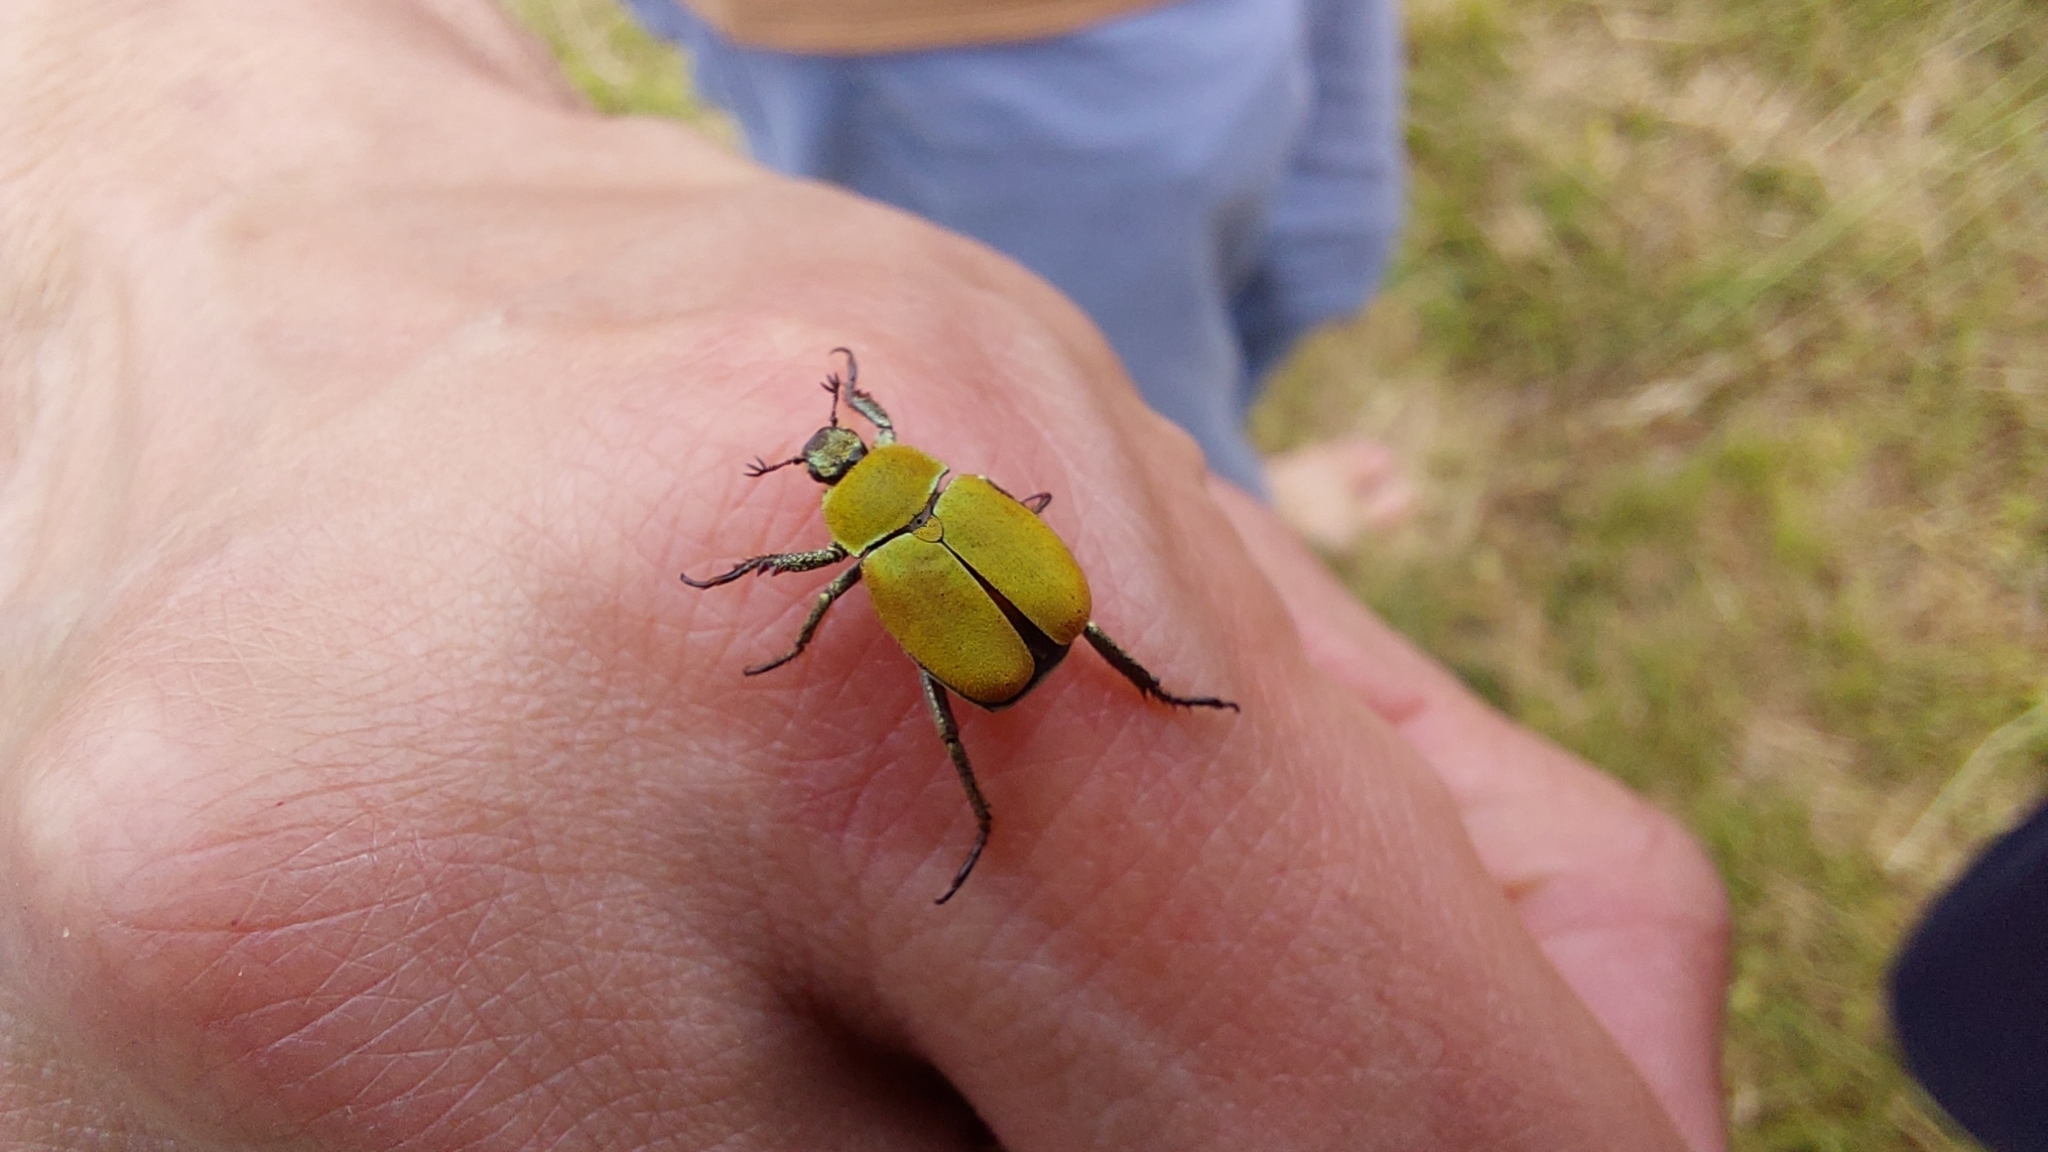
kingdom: Animalia
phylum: Arthropoda
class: Insecta
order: Coleoptera
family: Scarabaeidae
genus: Hoplia
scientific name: Hoplia argentea
